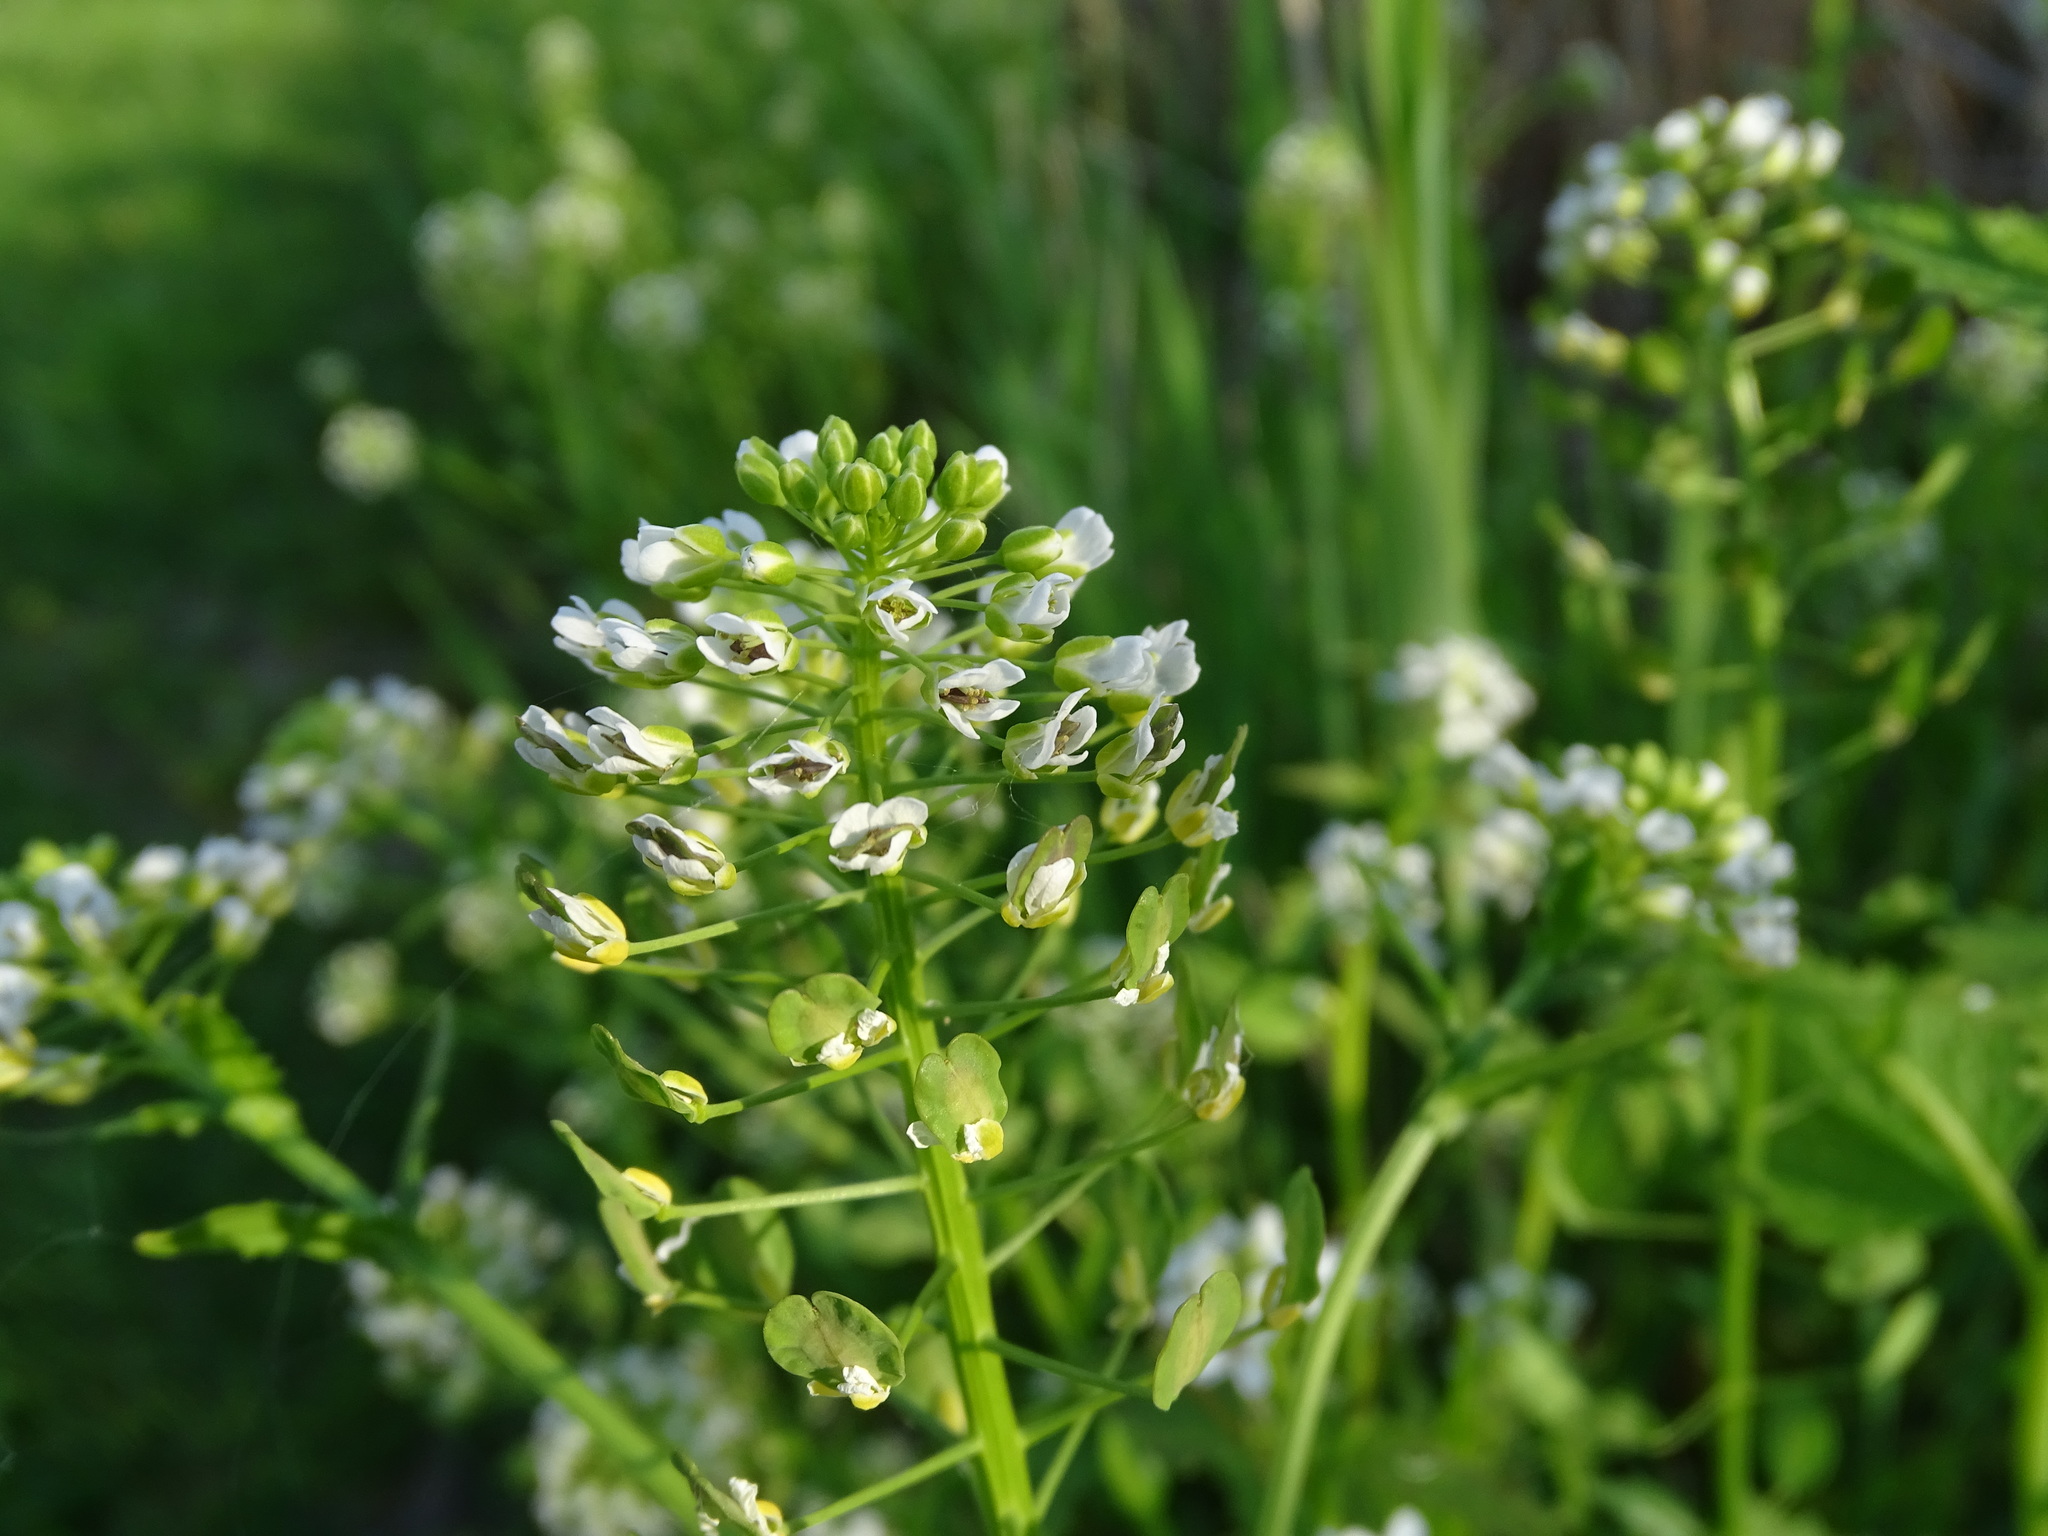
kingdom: Plantae
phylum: Tracheophyta
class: Magnoliopsida
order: Brassicales
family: Brassicaceae
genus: Thlaspi
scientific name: Thlaspi arvense
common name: Field pennycress
